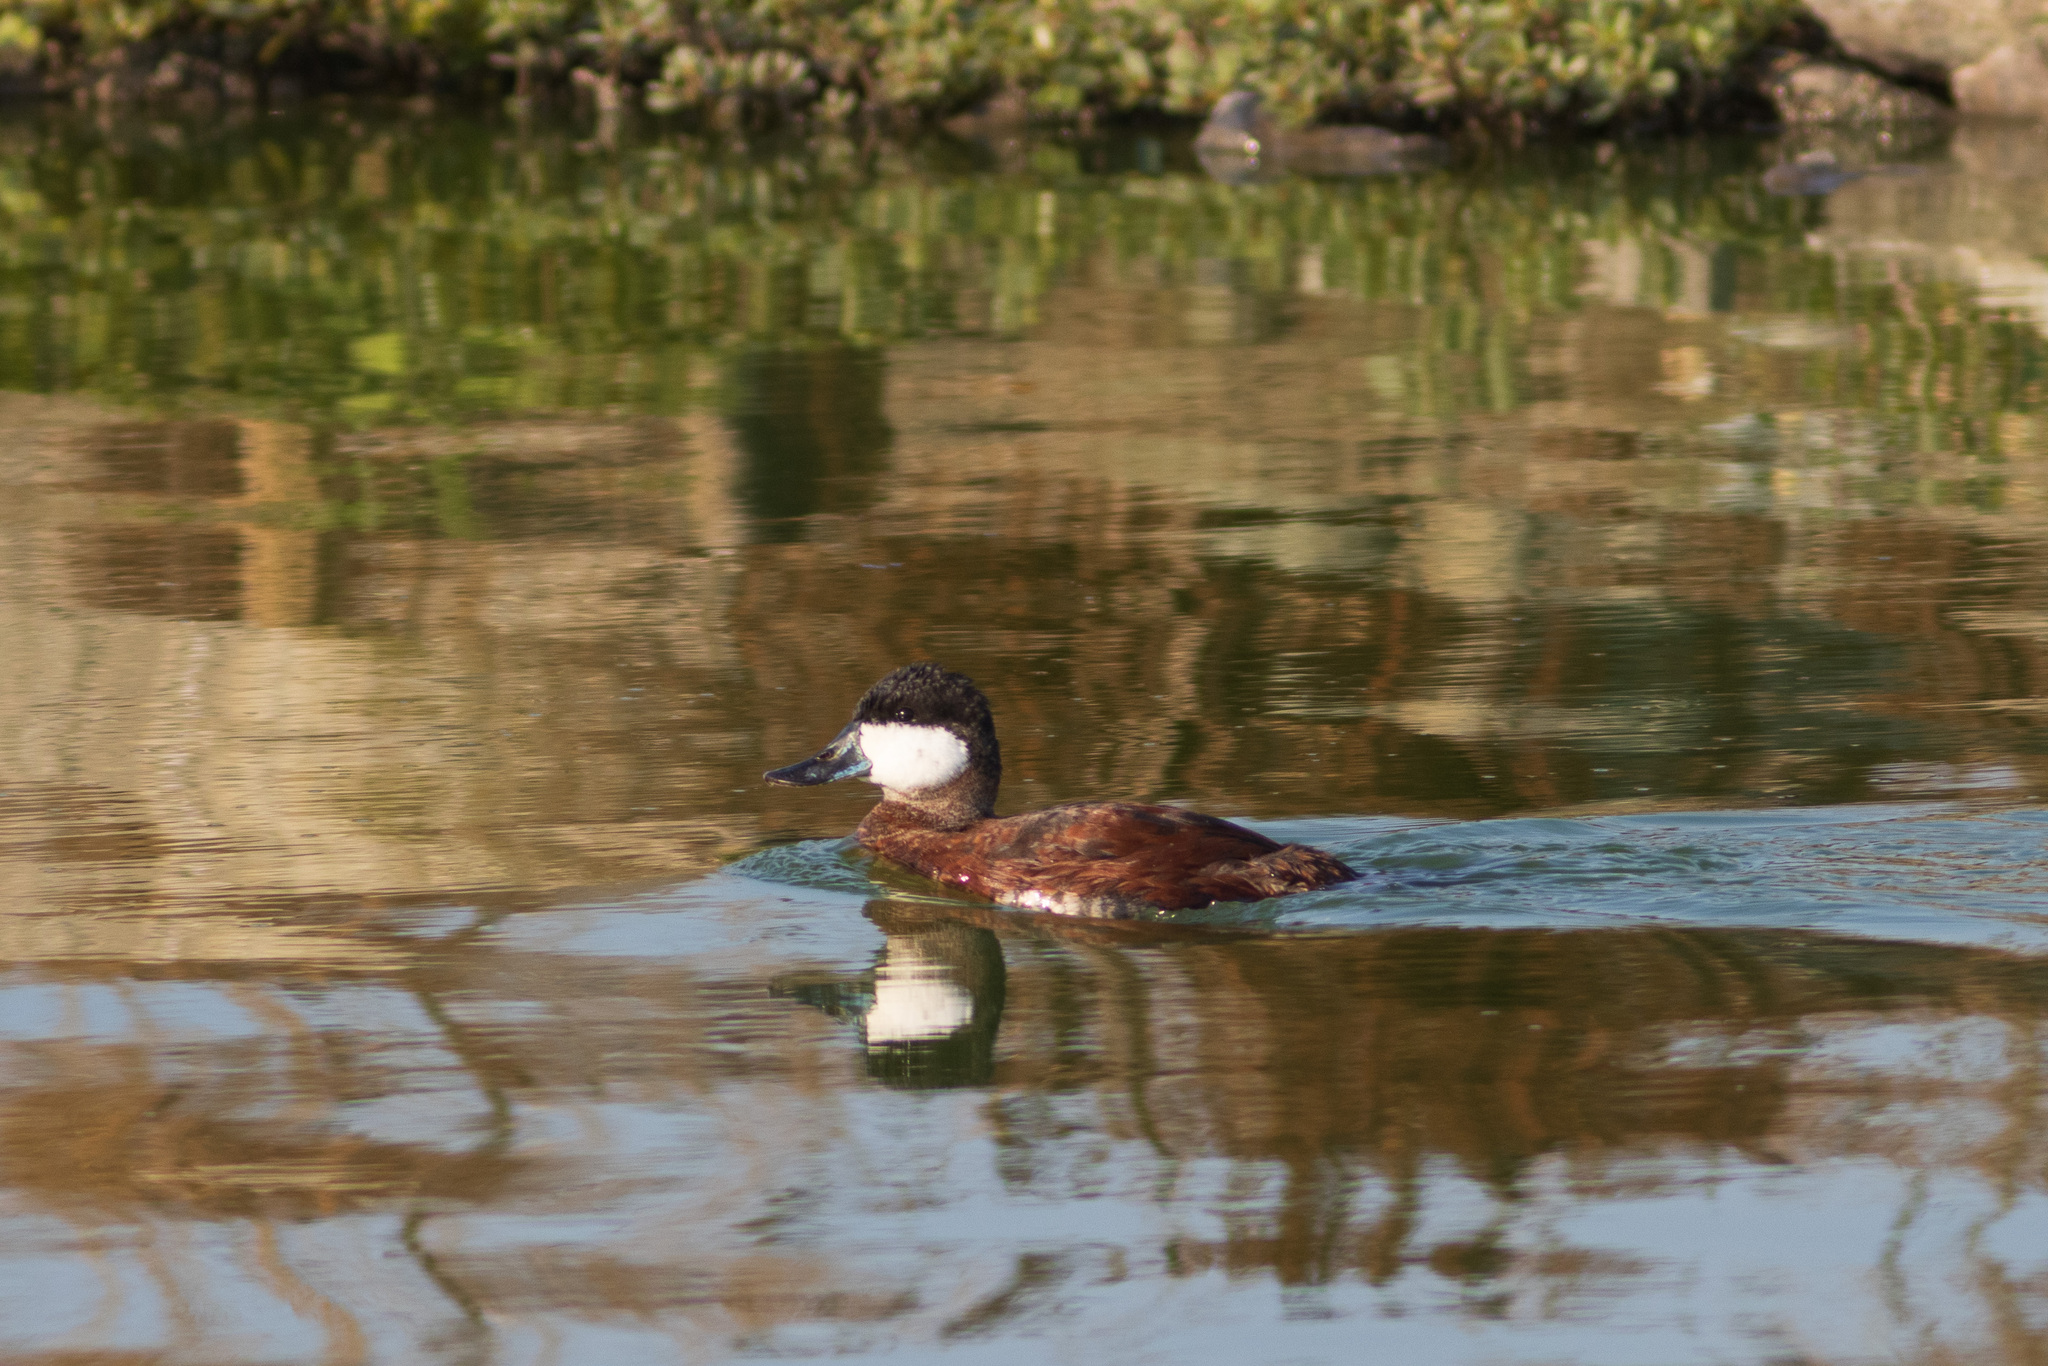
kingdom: Animalia
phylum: Chordata
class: Aves
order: Anseriformes
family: Anatidae
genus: Oxyura
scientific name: Oxyura jamaicensis
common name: Ruddy duck
